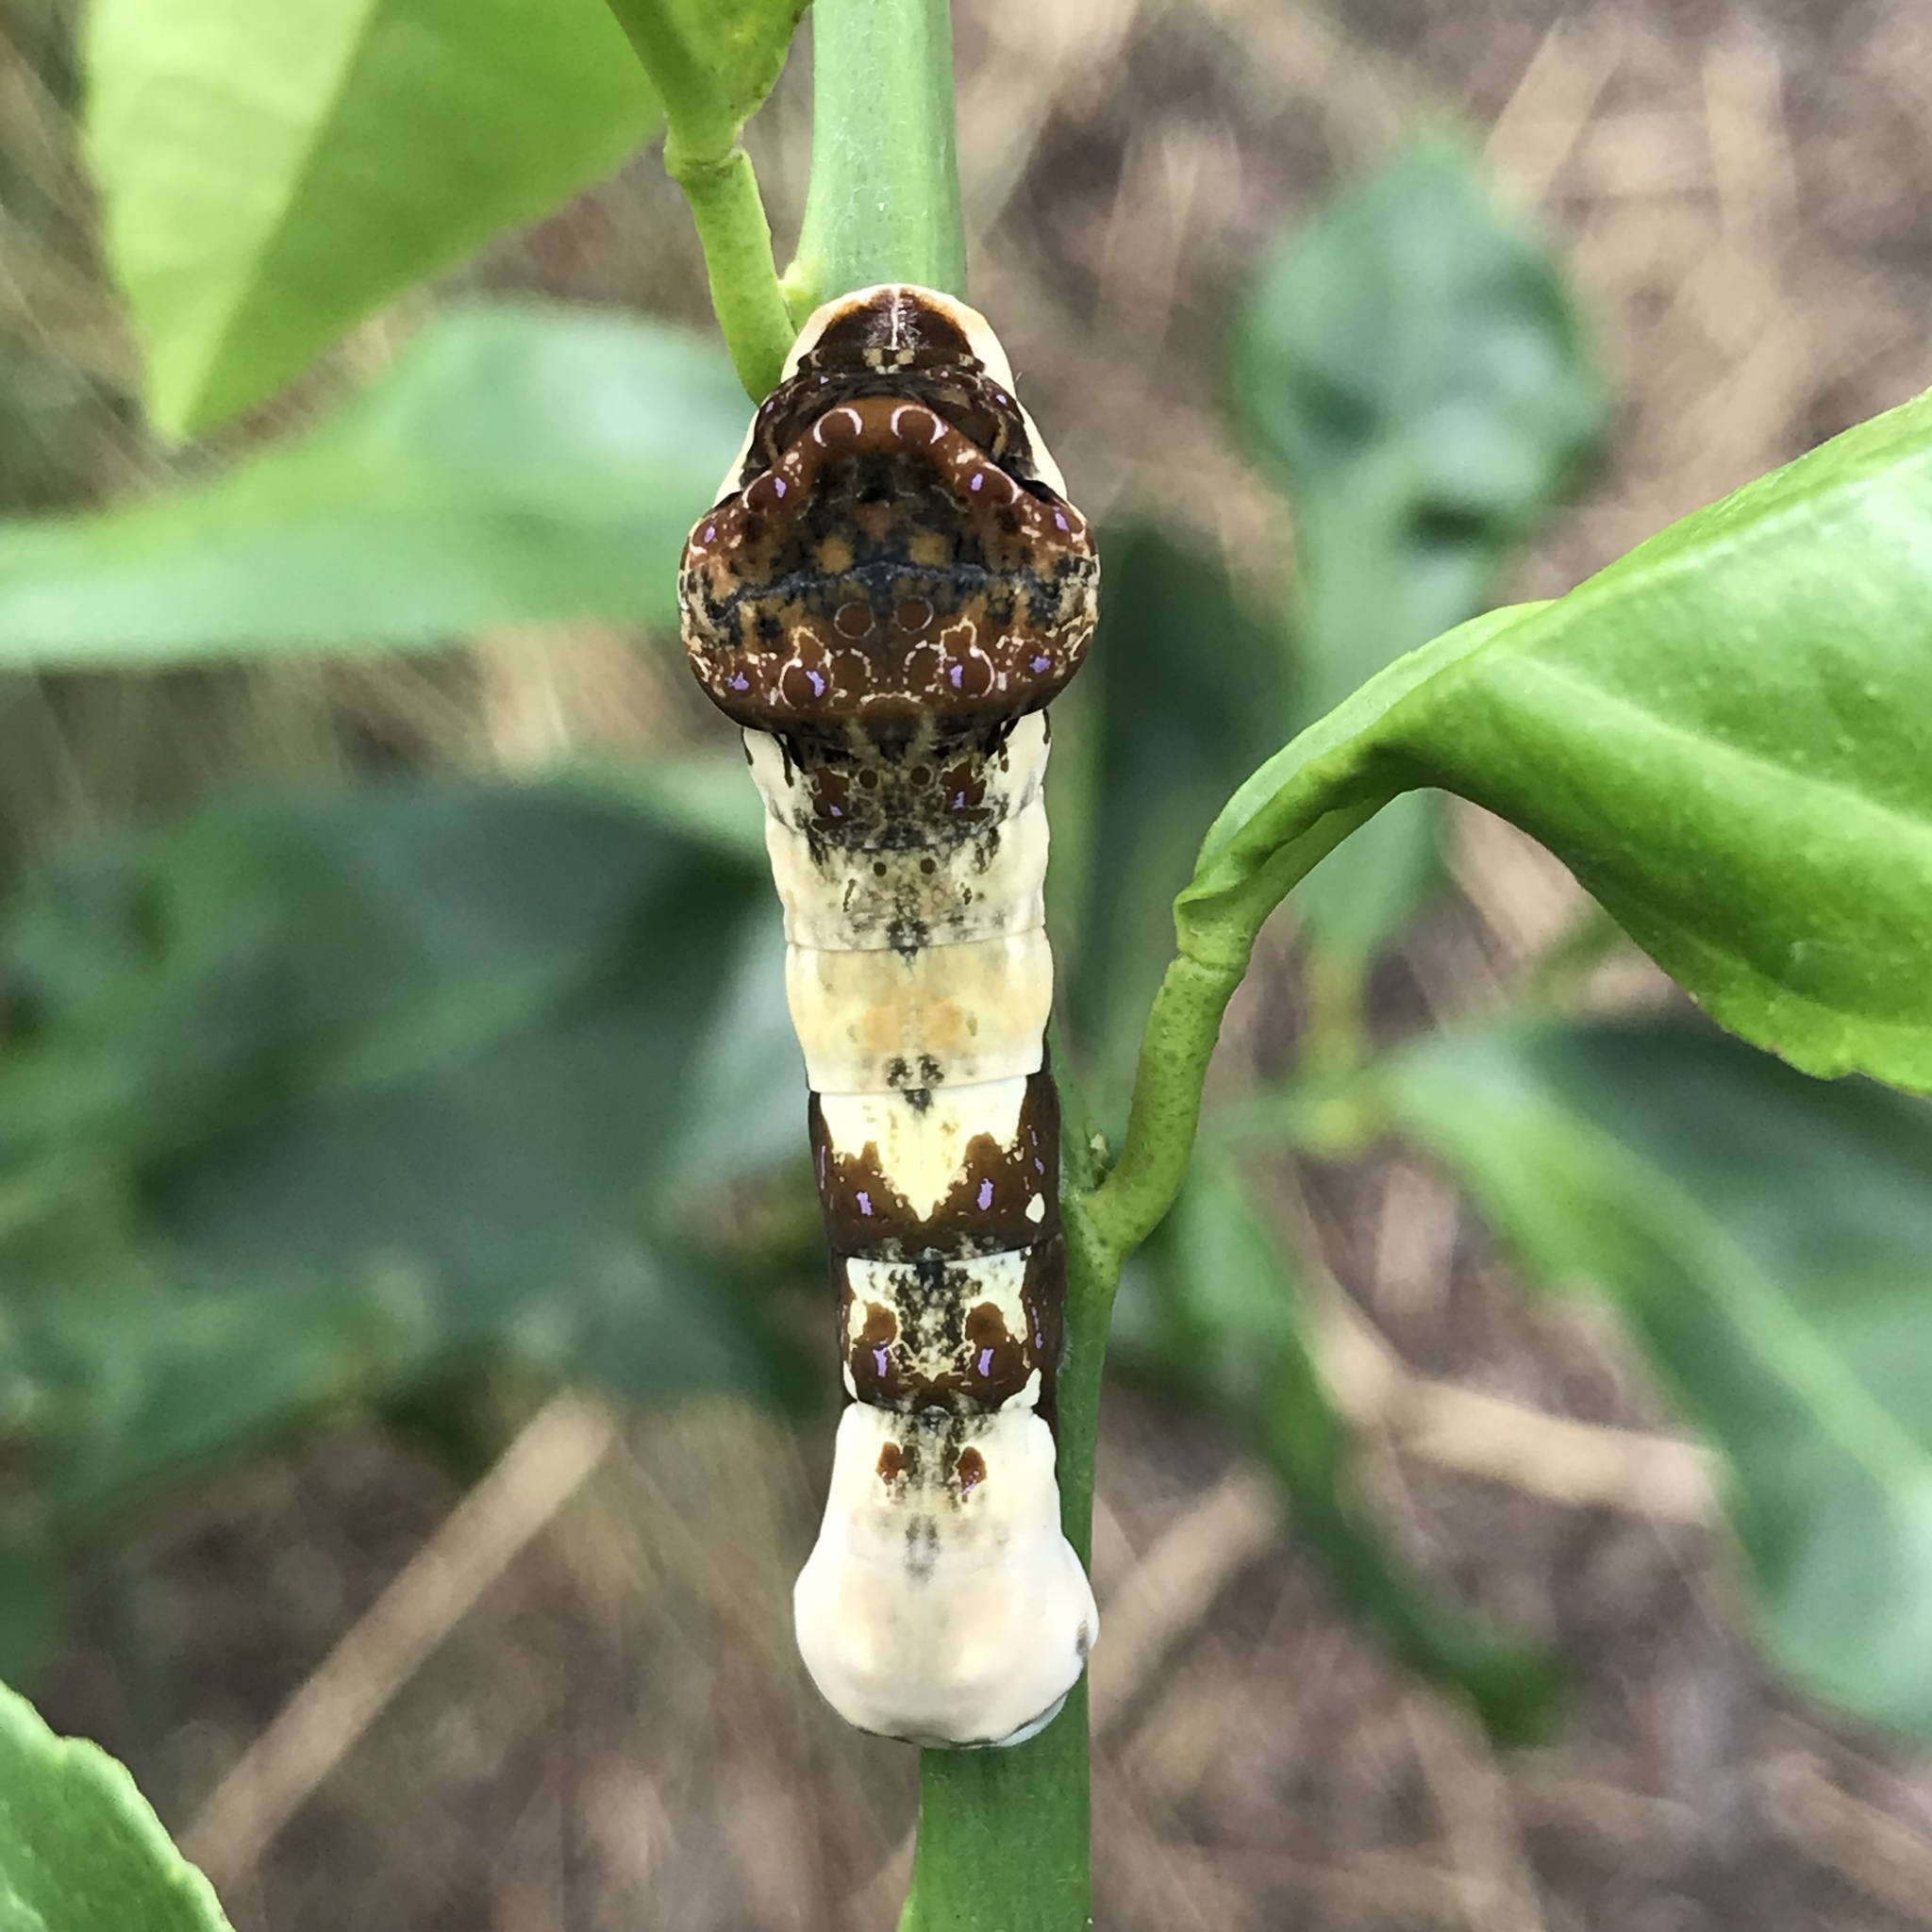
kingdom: Animalia
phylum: Arthropoda
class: Insecta
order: Lepidoptera
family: Papilionidae
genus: Papilio
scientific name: Papilio cresphontes
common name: Giant swallowtail
